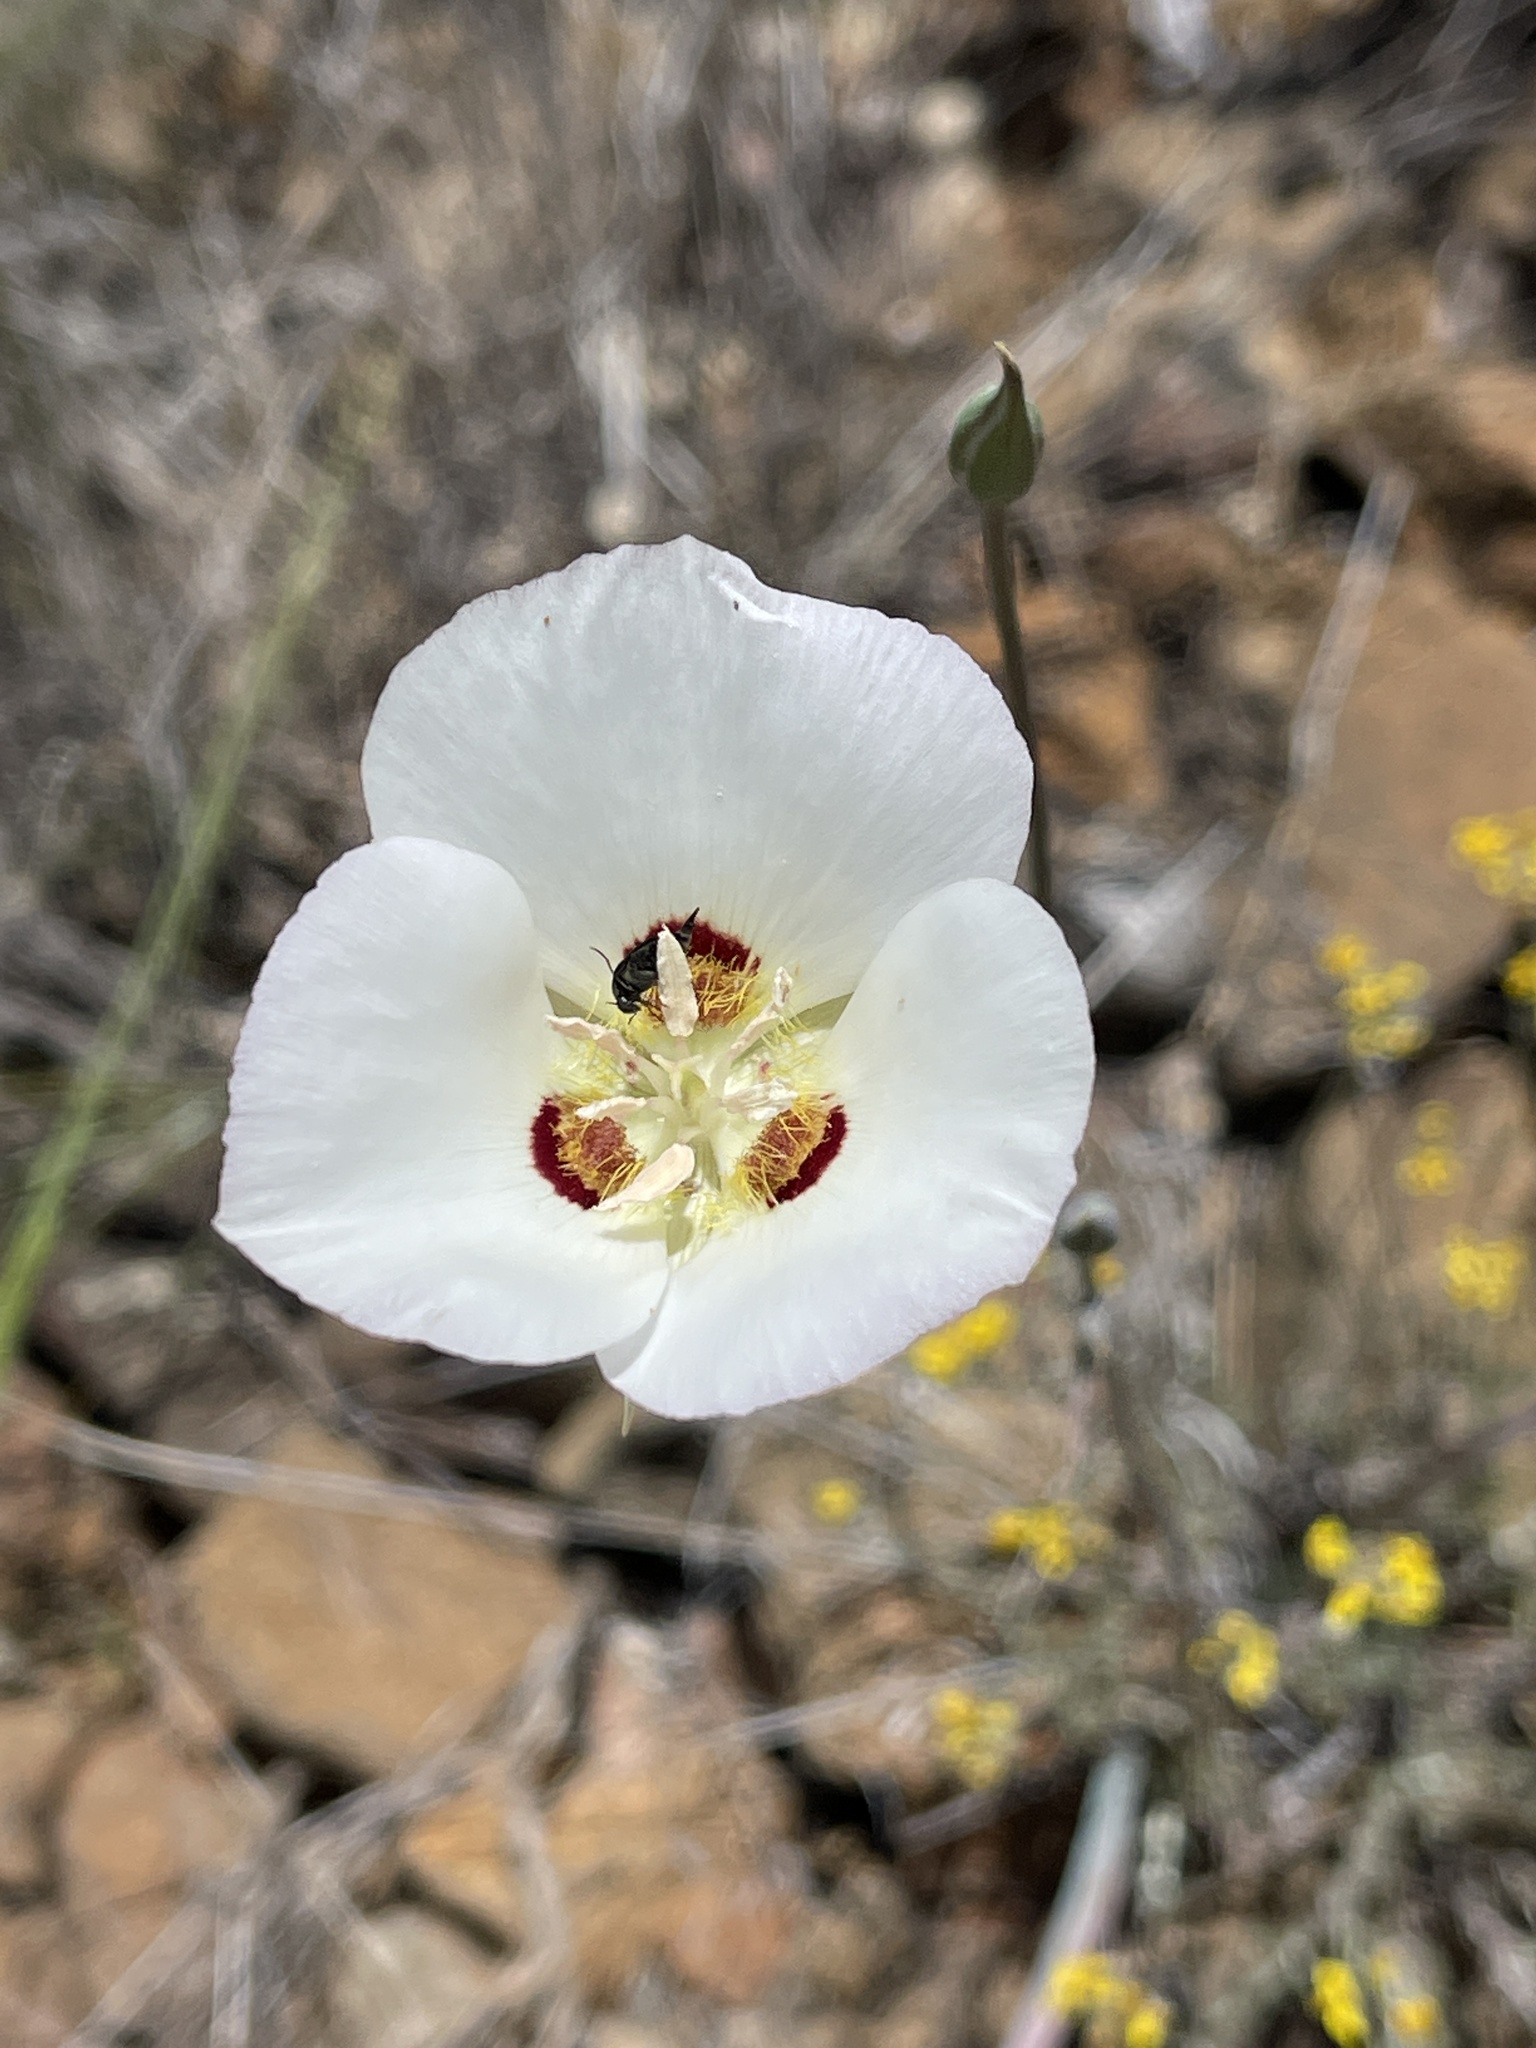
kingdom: Plantae
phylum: Tracheophyta
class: Liliopsida
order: Liliales
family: Liliaceae
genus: Calochortus
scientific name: Calochortus dunnii
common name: Dunn's mariposa-lily
